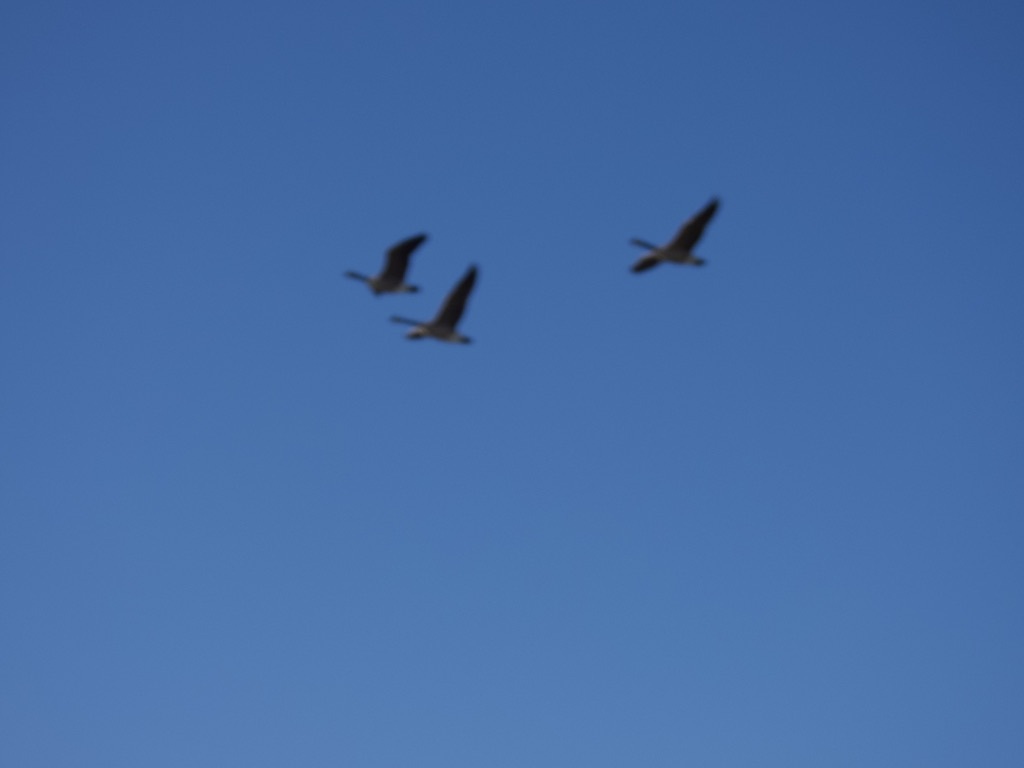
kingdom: Animalia
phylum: Chordata
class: Aves
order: Anseriformes
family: Anatidae
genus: Branta
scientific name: Branta canadensis
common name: Canada goose
